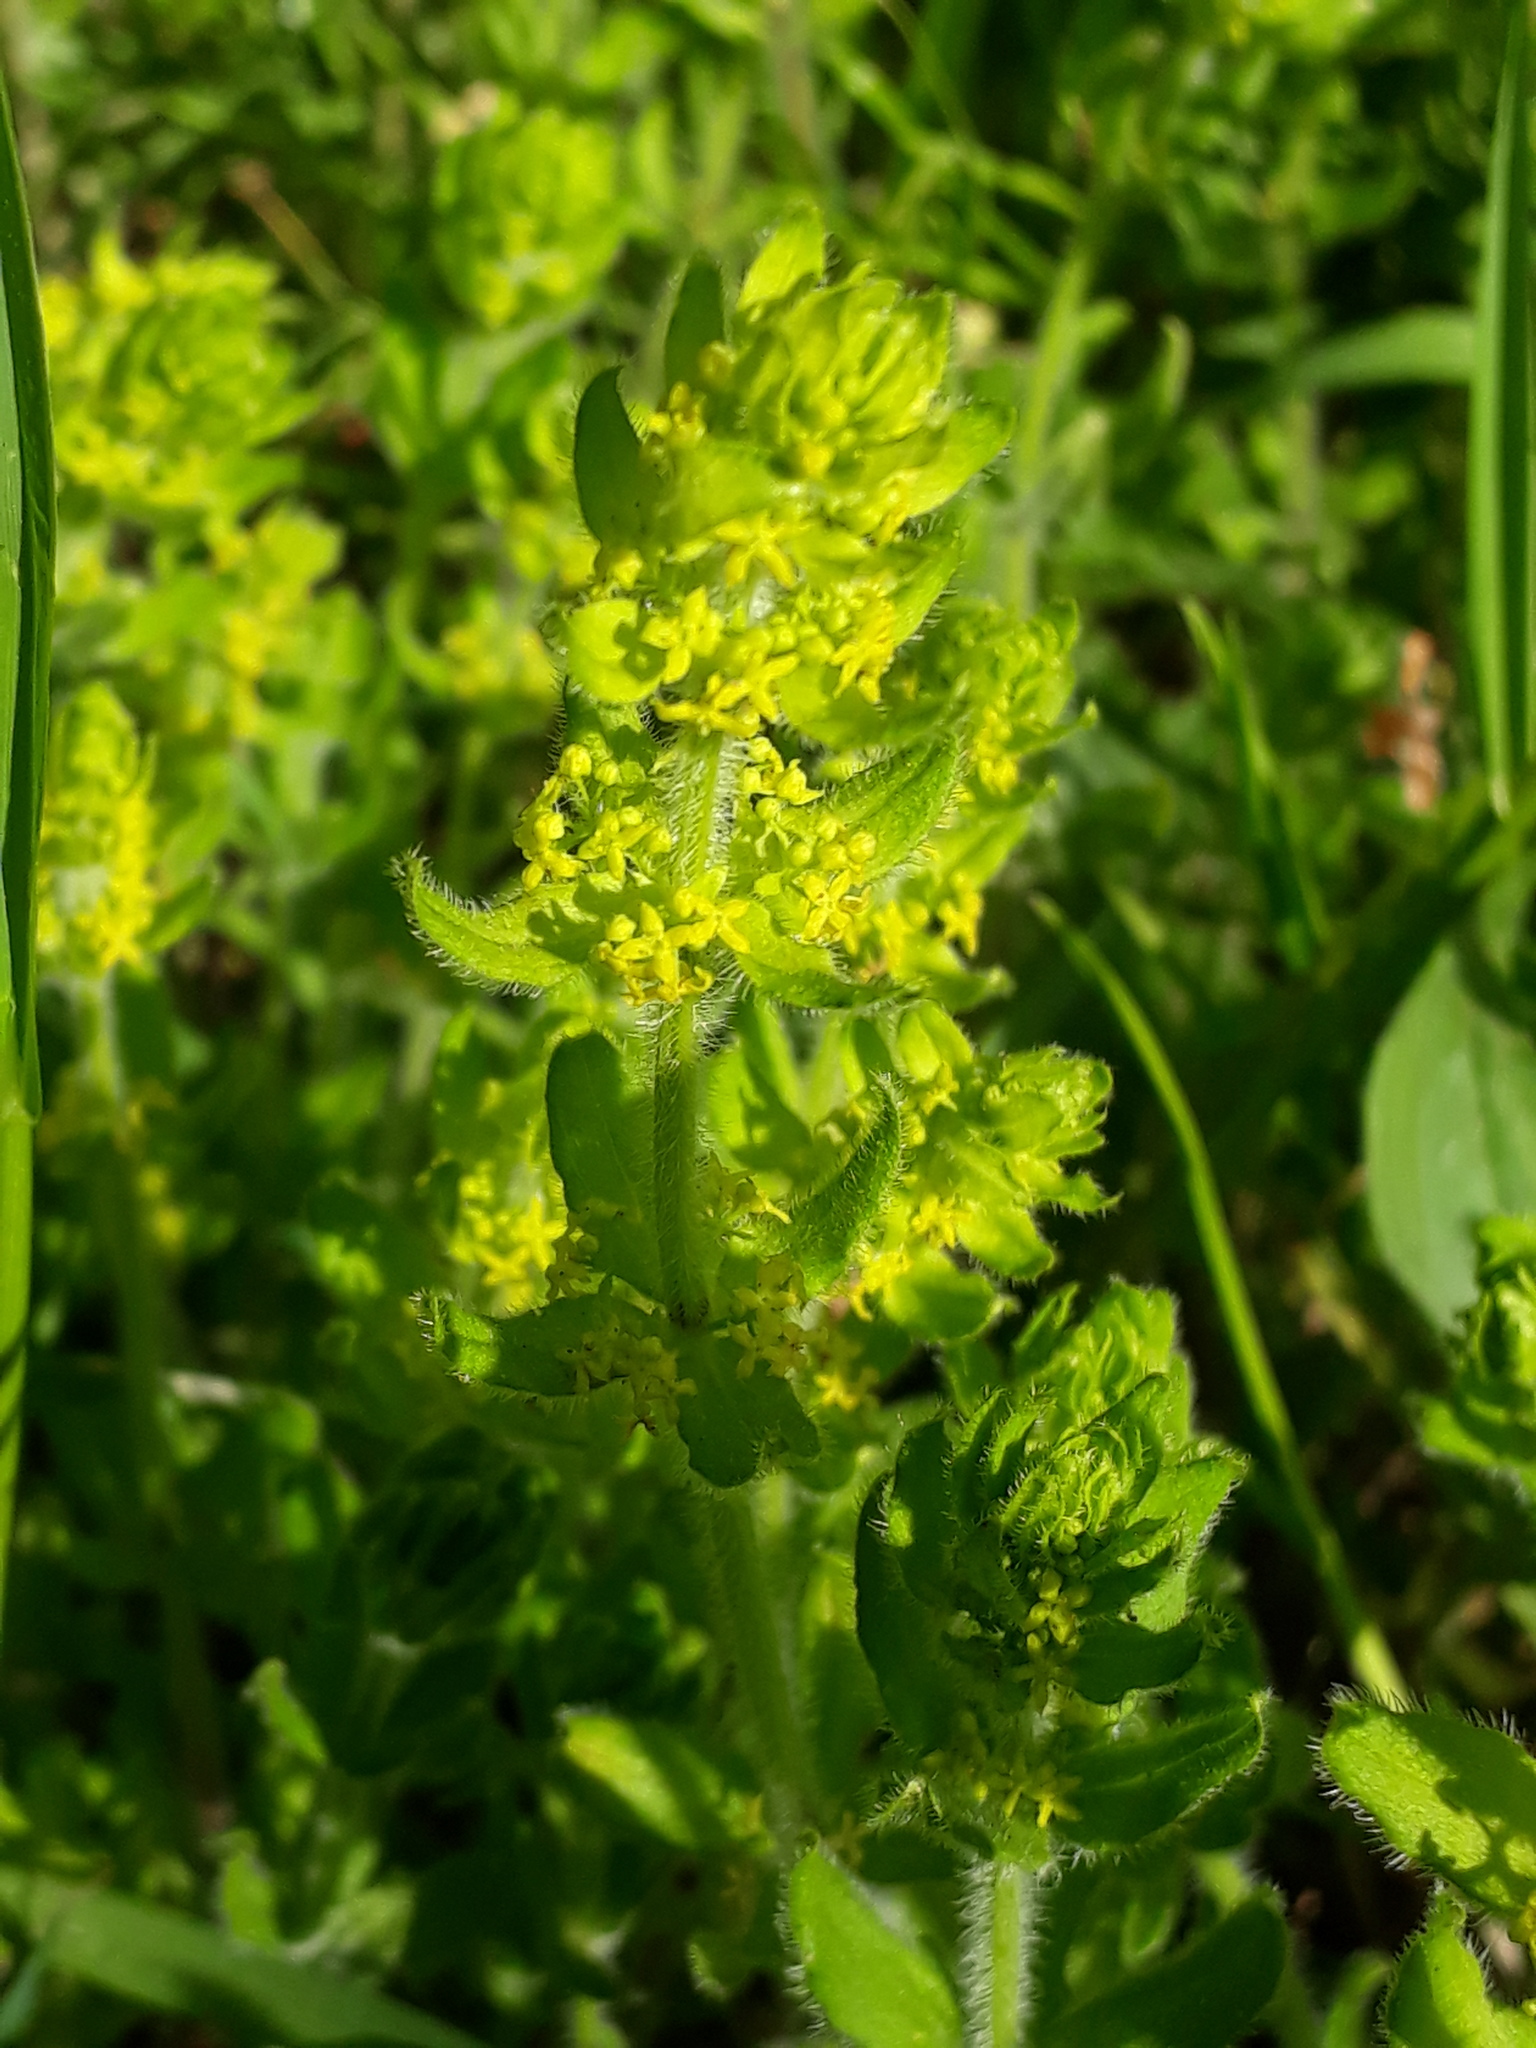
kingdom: Plantae
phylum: Tracheophyta
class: Magnoliopsida
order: Gentianales
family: Rubiaceae
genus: Cruciata
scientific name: Cruciata laevipes
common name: Crosswort
